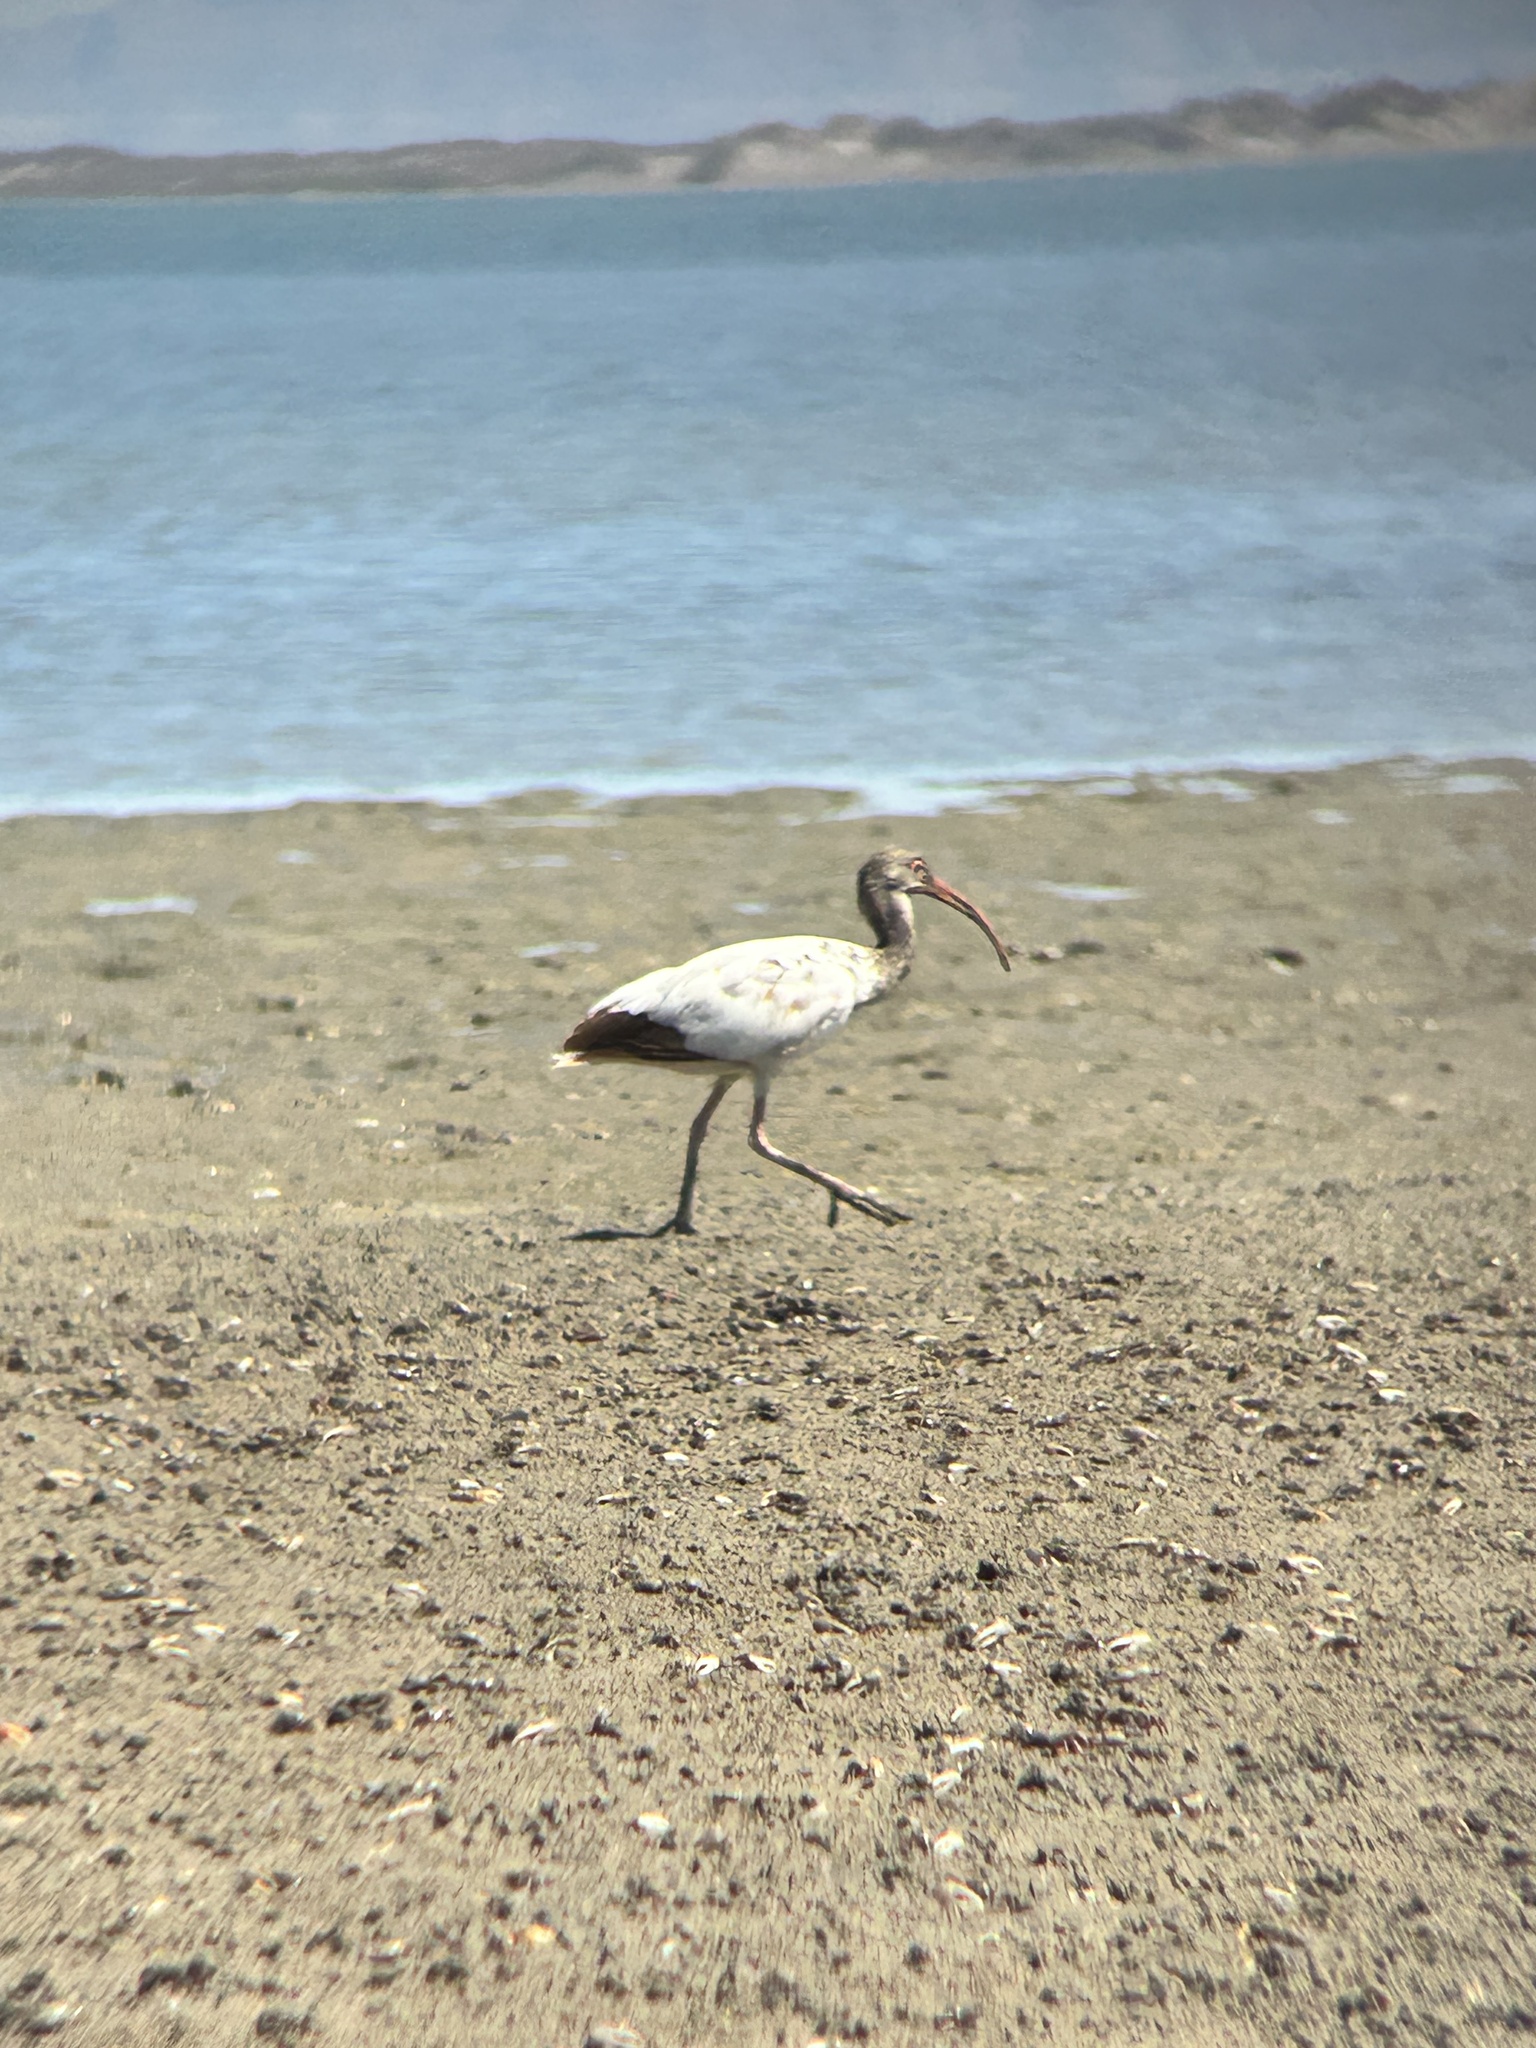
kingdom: Animalia
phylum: Chordata
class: Aves
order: Pelecaniformes
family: Threskiornithidae
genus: Eudocimus
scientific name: Eudocimus albus
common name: White ibis
